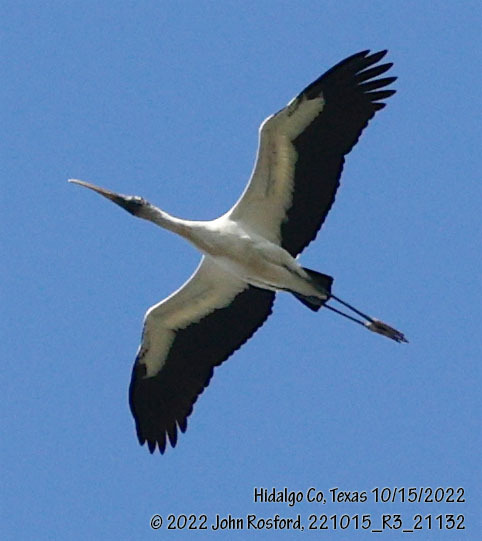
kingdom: Animalia
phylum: Chordata
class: Aves
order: Ciconiiformes
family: Ciconiidae
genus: Mycteria
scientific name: Mycteria americana
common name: Wood stork
